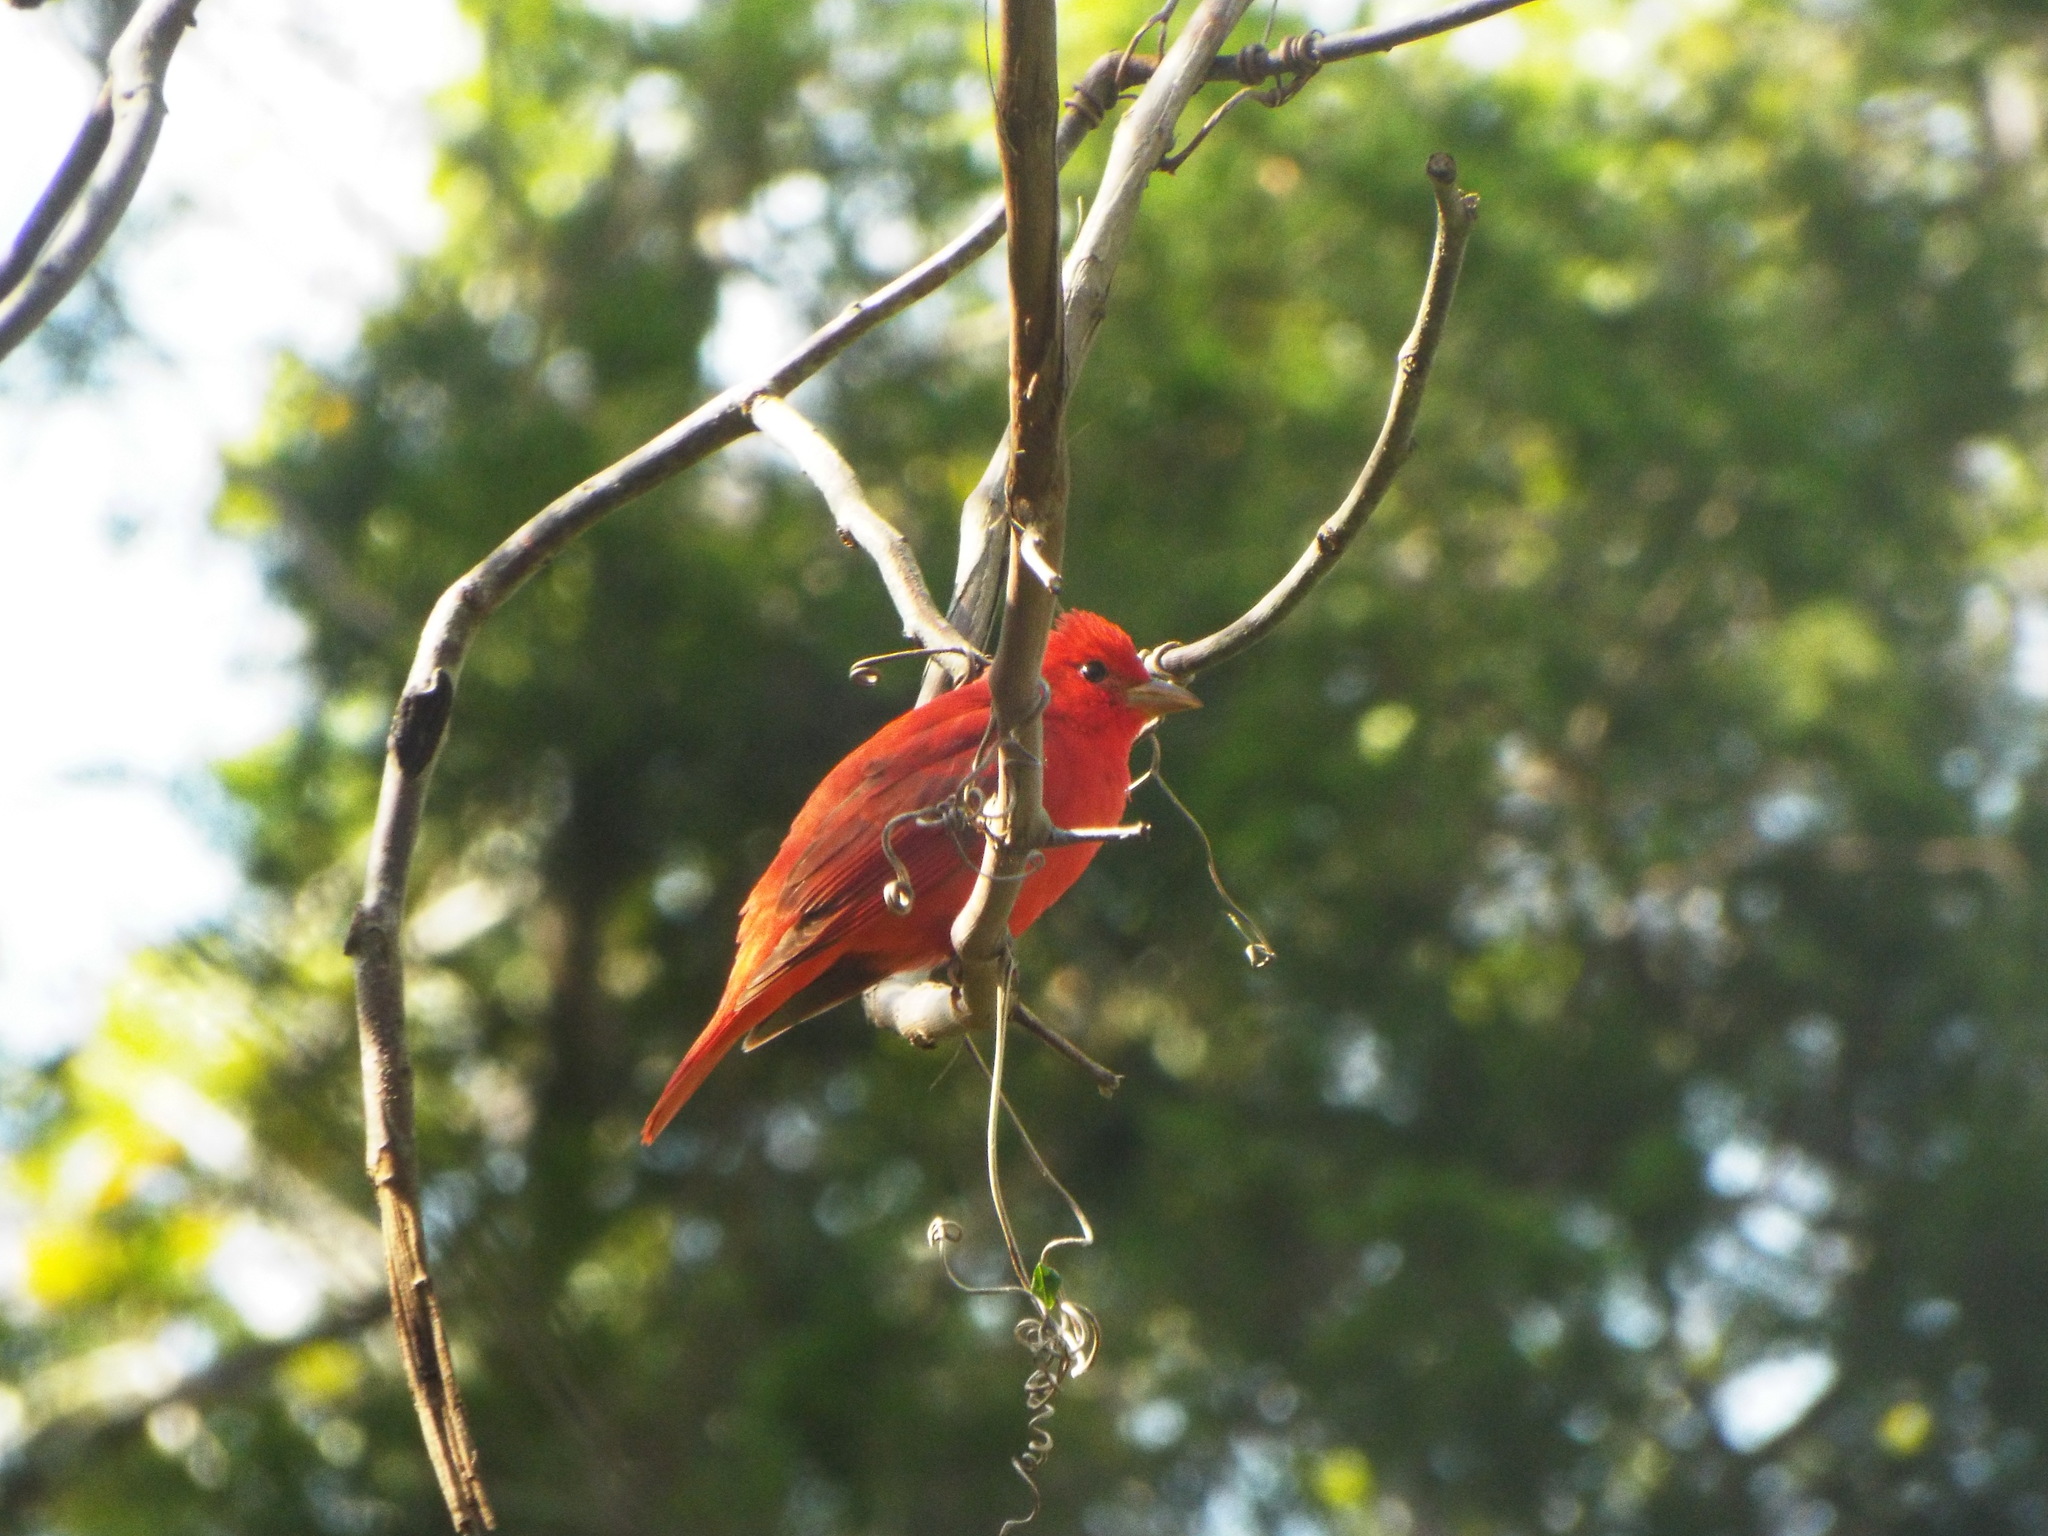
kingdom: Animalia
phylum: Chordata
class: Aves
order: Passeriformes
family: Cardinalidae
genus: Piranga
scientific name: Piranga rubra
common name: Summer tanager
